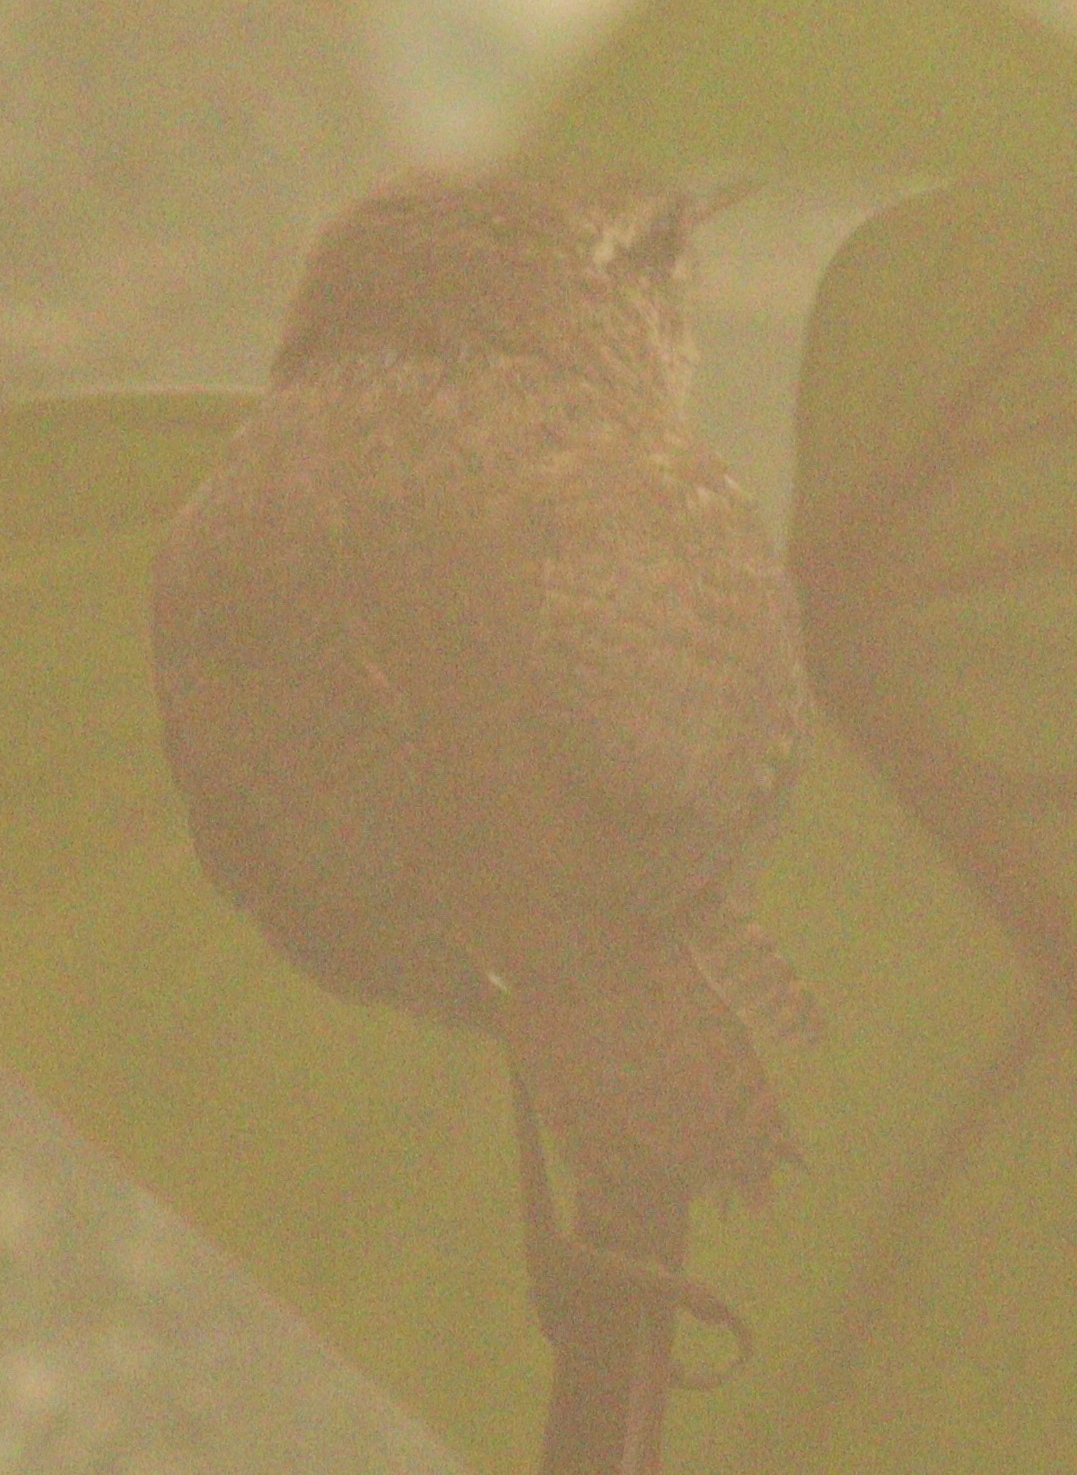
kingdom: Animalia
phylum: Chordata
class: Aves
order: Passeriformes
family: Troglodytidae
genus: Troglodytes
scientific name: Troglodytes troglodytes
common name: Eurasian wren
